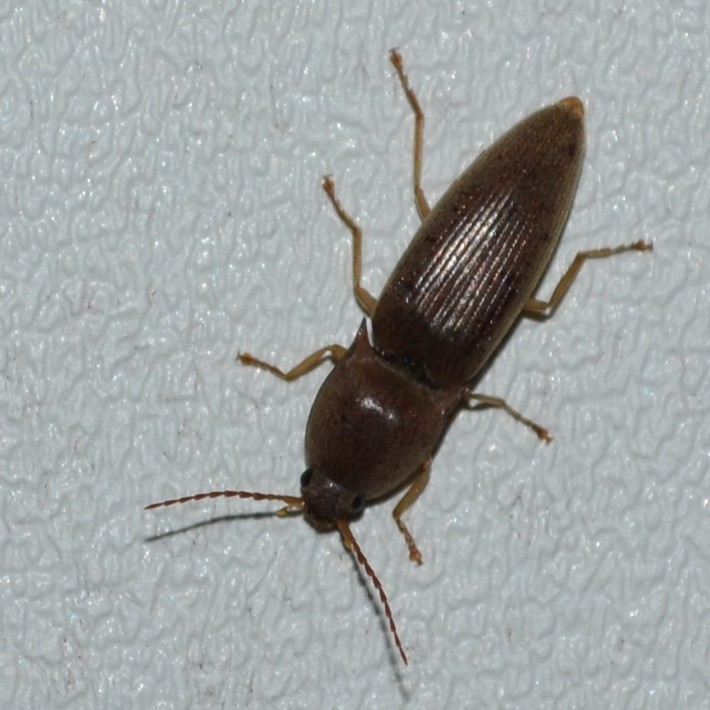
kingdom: Animalia
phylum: Arthropoda
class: Insecta
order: Coleoptera
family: Elateridae
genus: Monocrepidius
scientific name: Monocrepidius lividus
